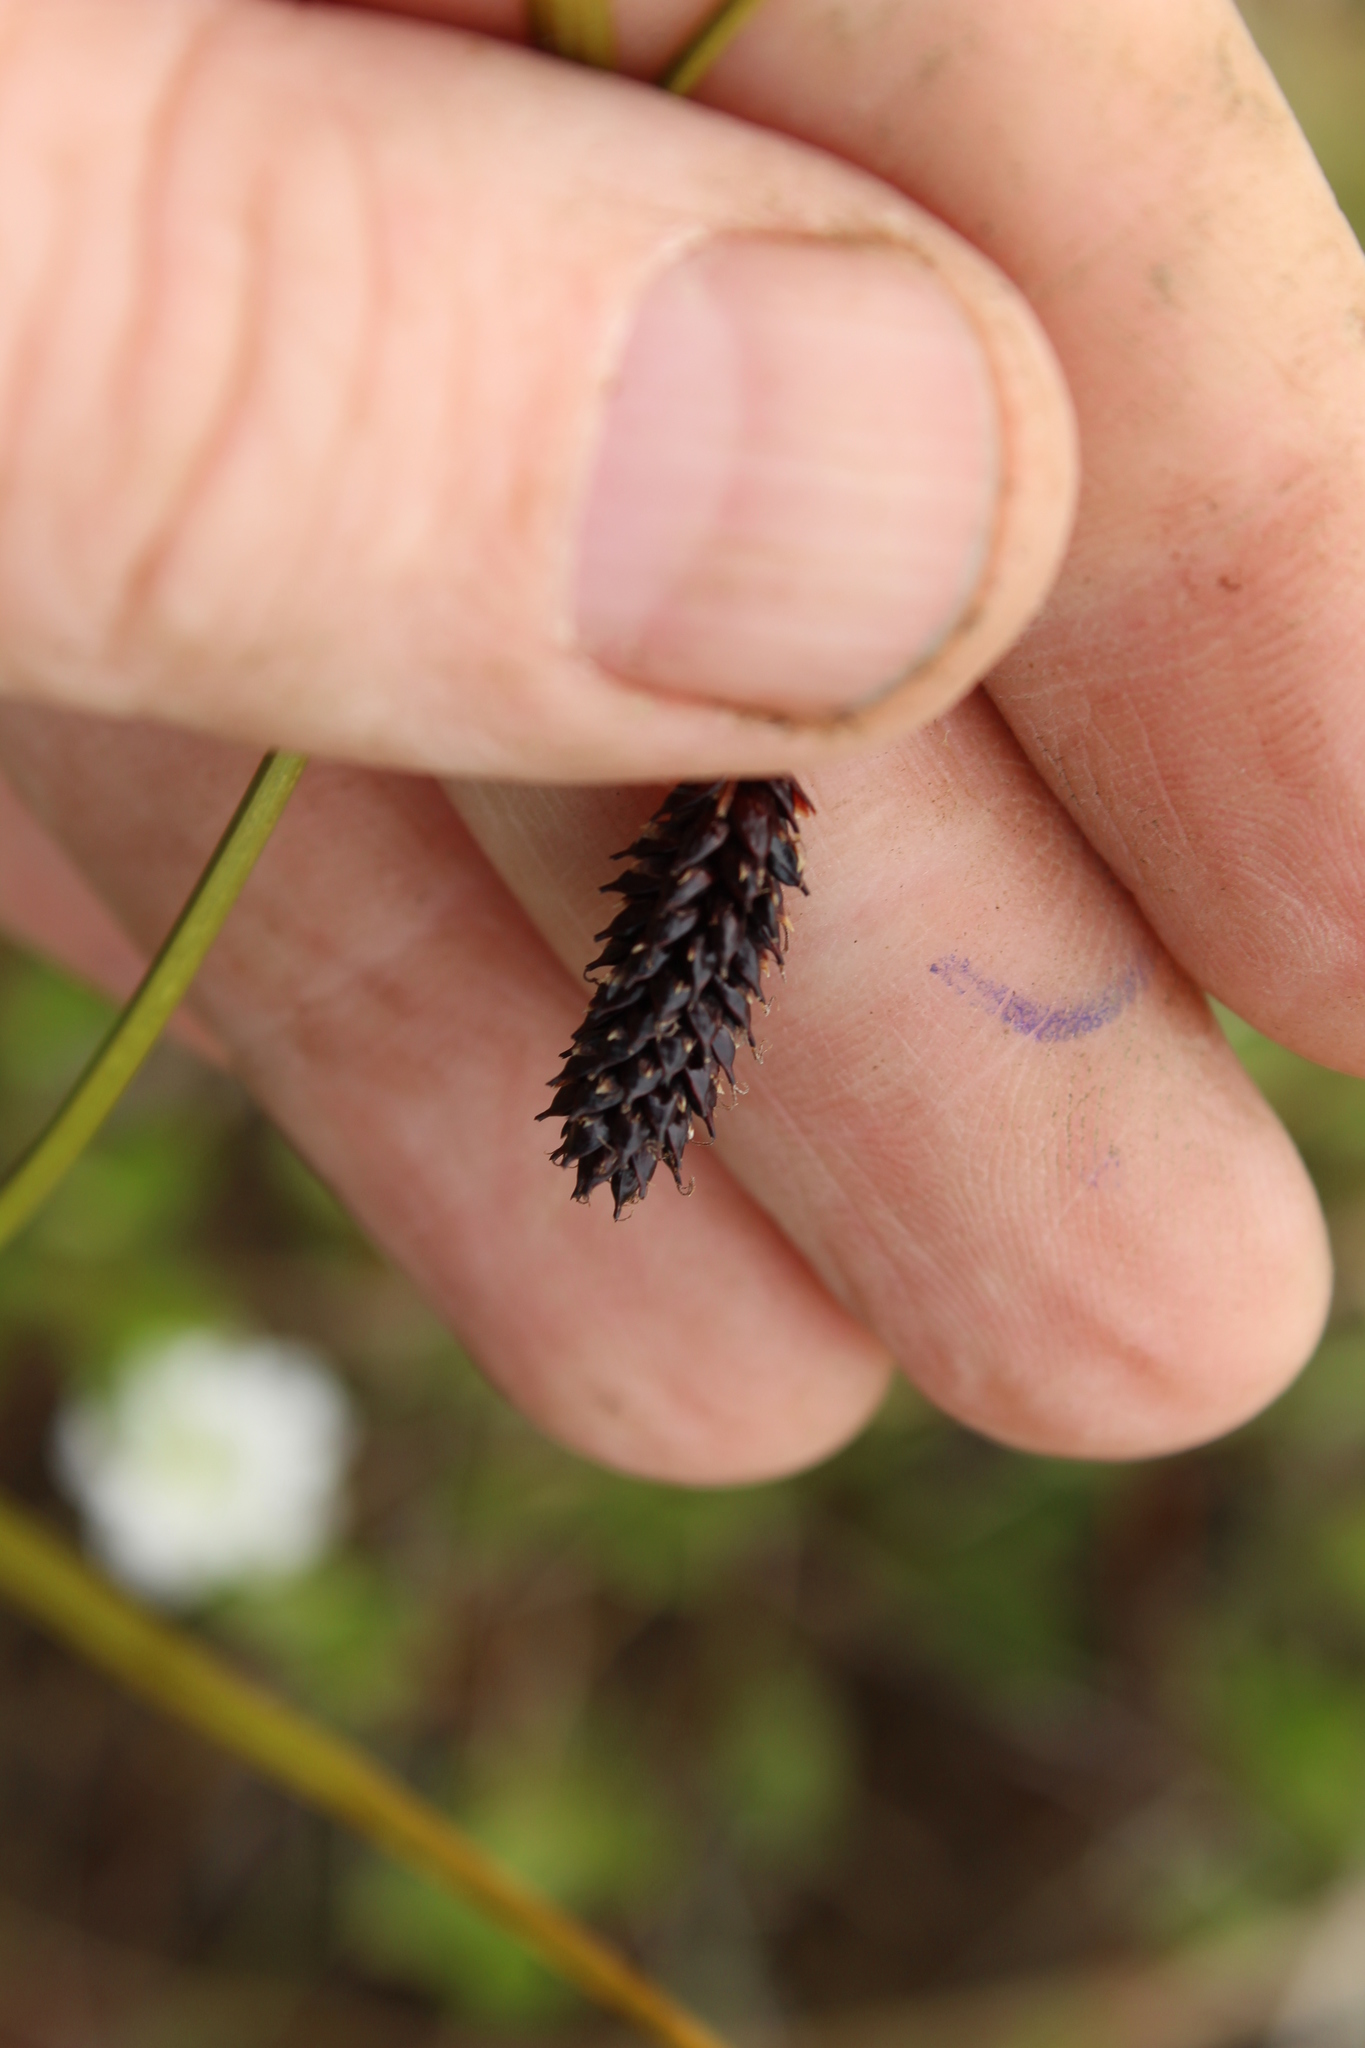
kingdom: Plantae
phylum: Tracheophyta
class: Liliopsida
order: Poales
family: Cyperaceae
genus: Carex
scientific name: Carex saxatilis
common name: Russet sedge
